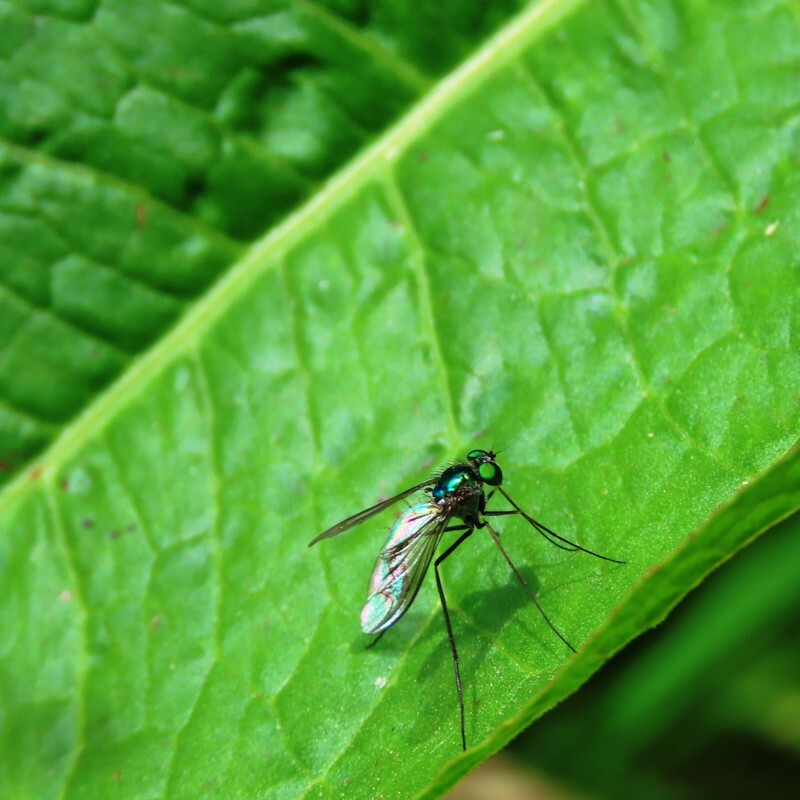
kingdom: Animalia
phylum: Arthropoda
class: Insecta
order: Diptera
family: Dolichopodidae
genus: Heteropsilopus
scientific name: Heteropsilopus cingulipes
